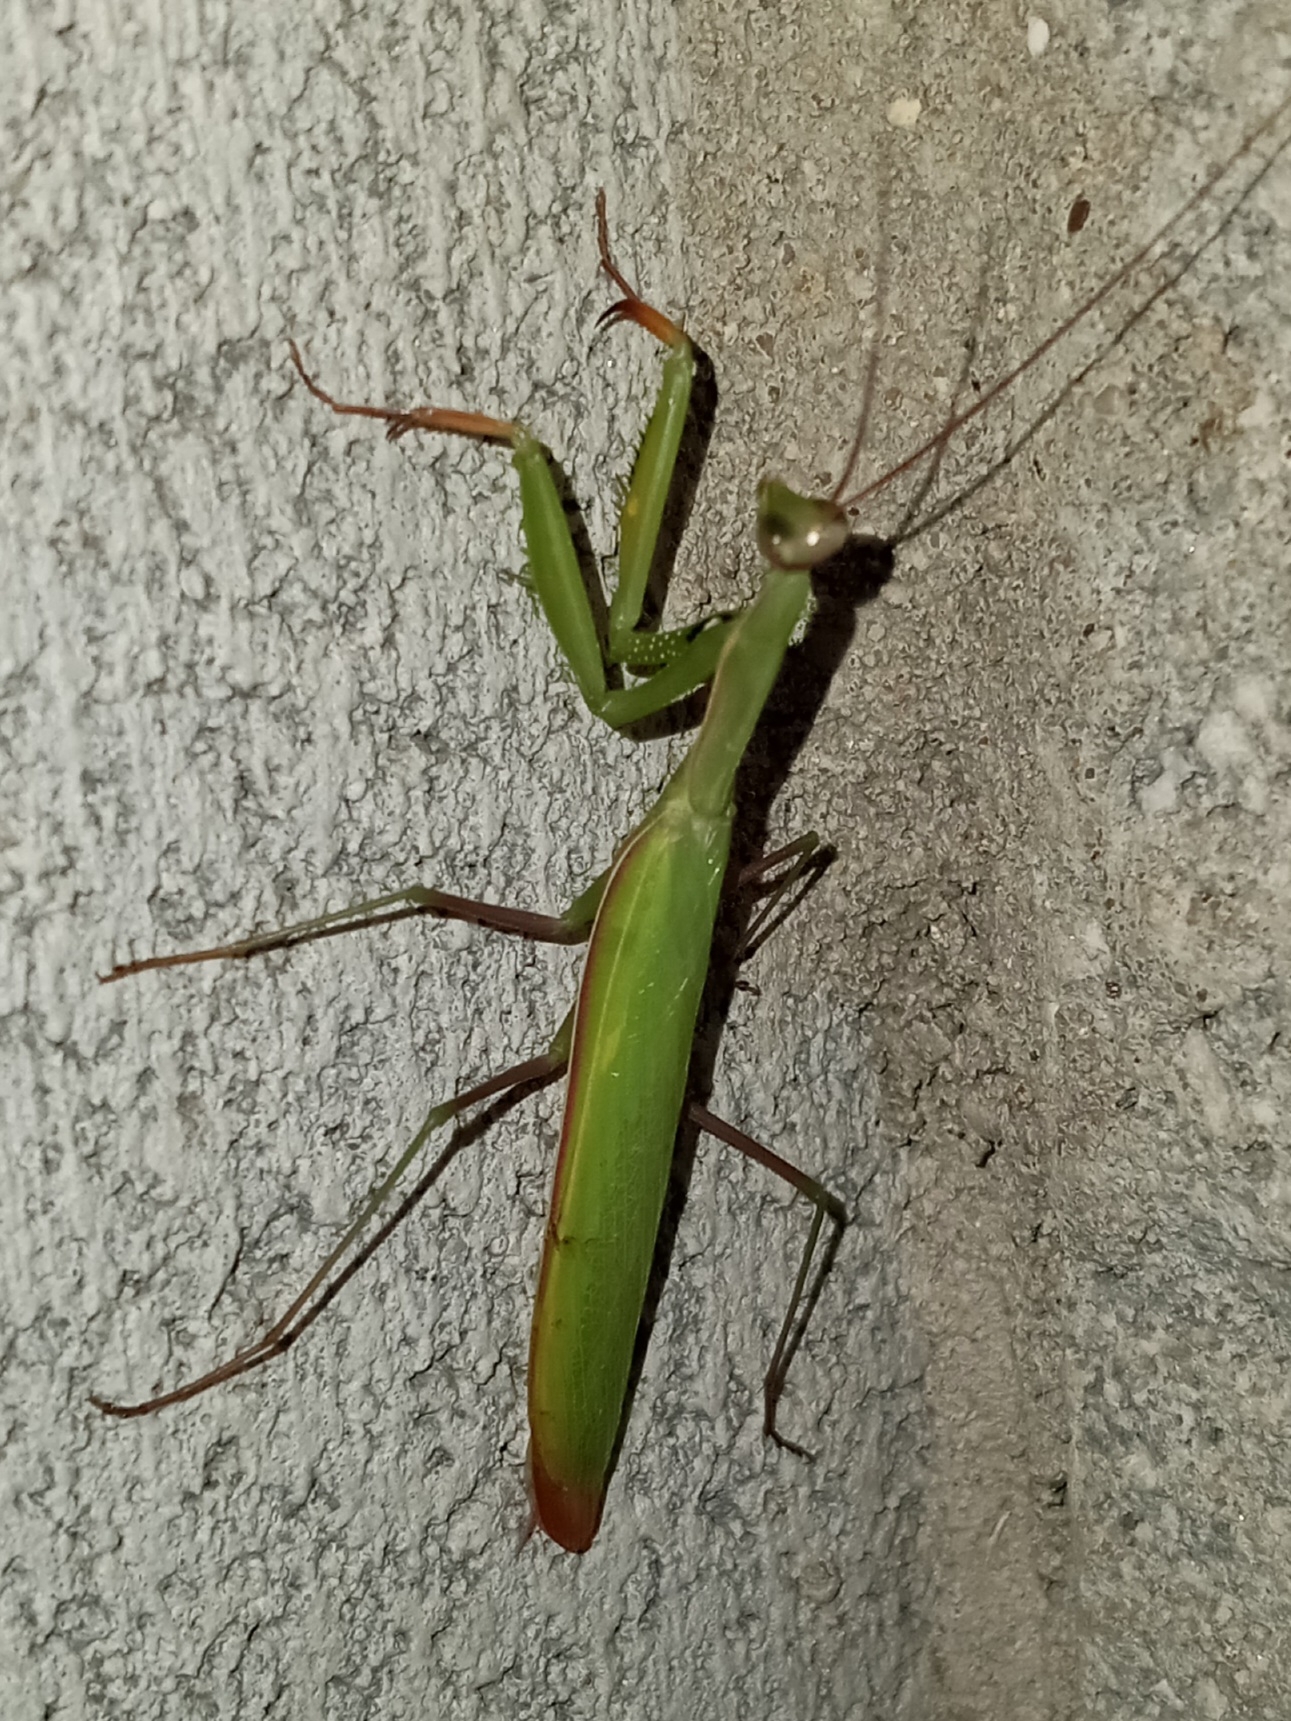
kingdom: Animalia
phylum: Arthropoda
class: Insecta
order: Mantodea
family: Mantidae
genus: Mantis
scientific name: Mantis religiosa
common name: Praying mantis
